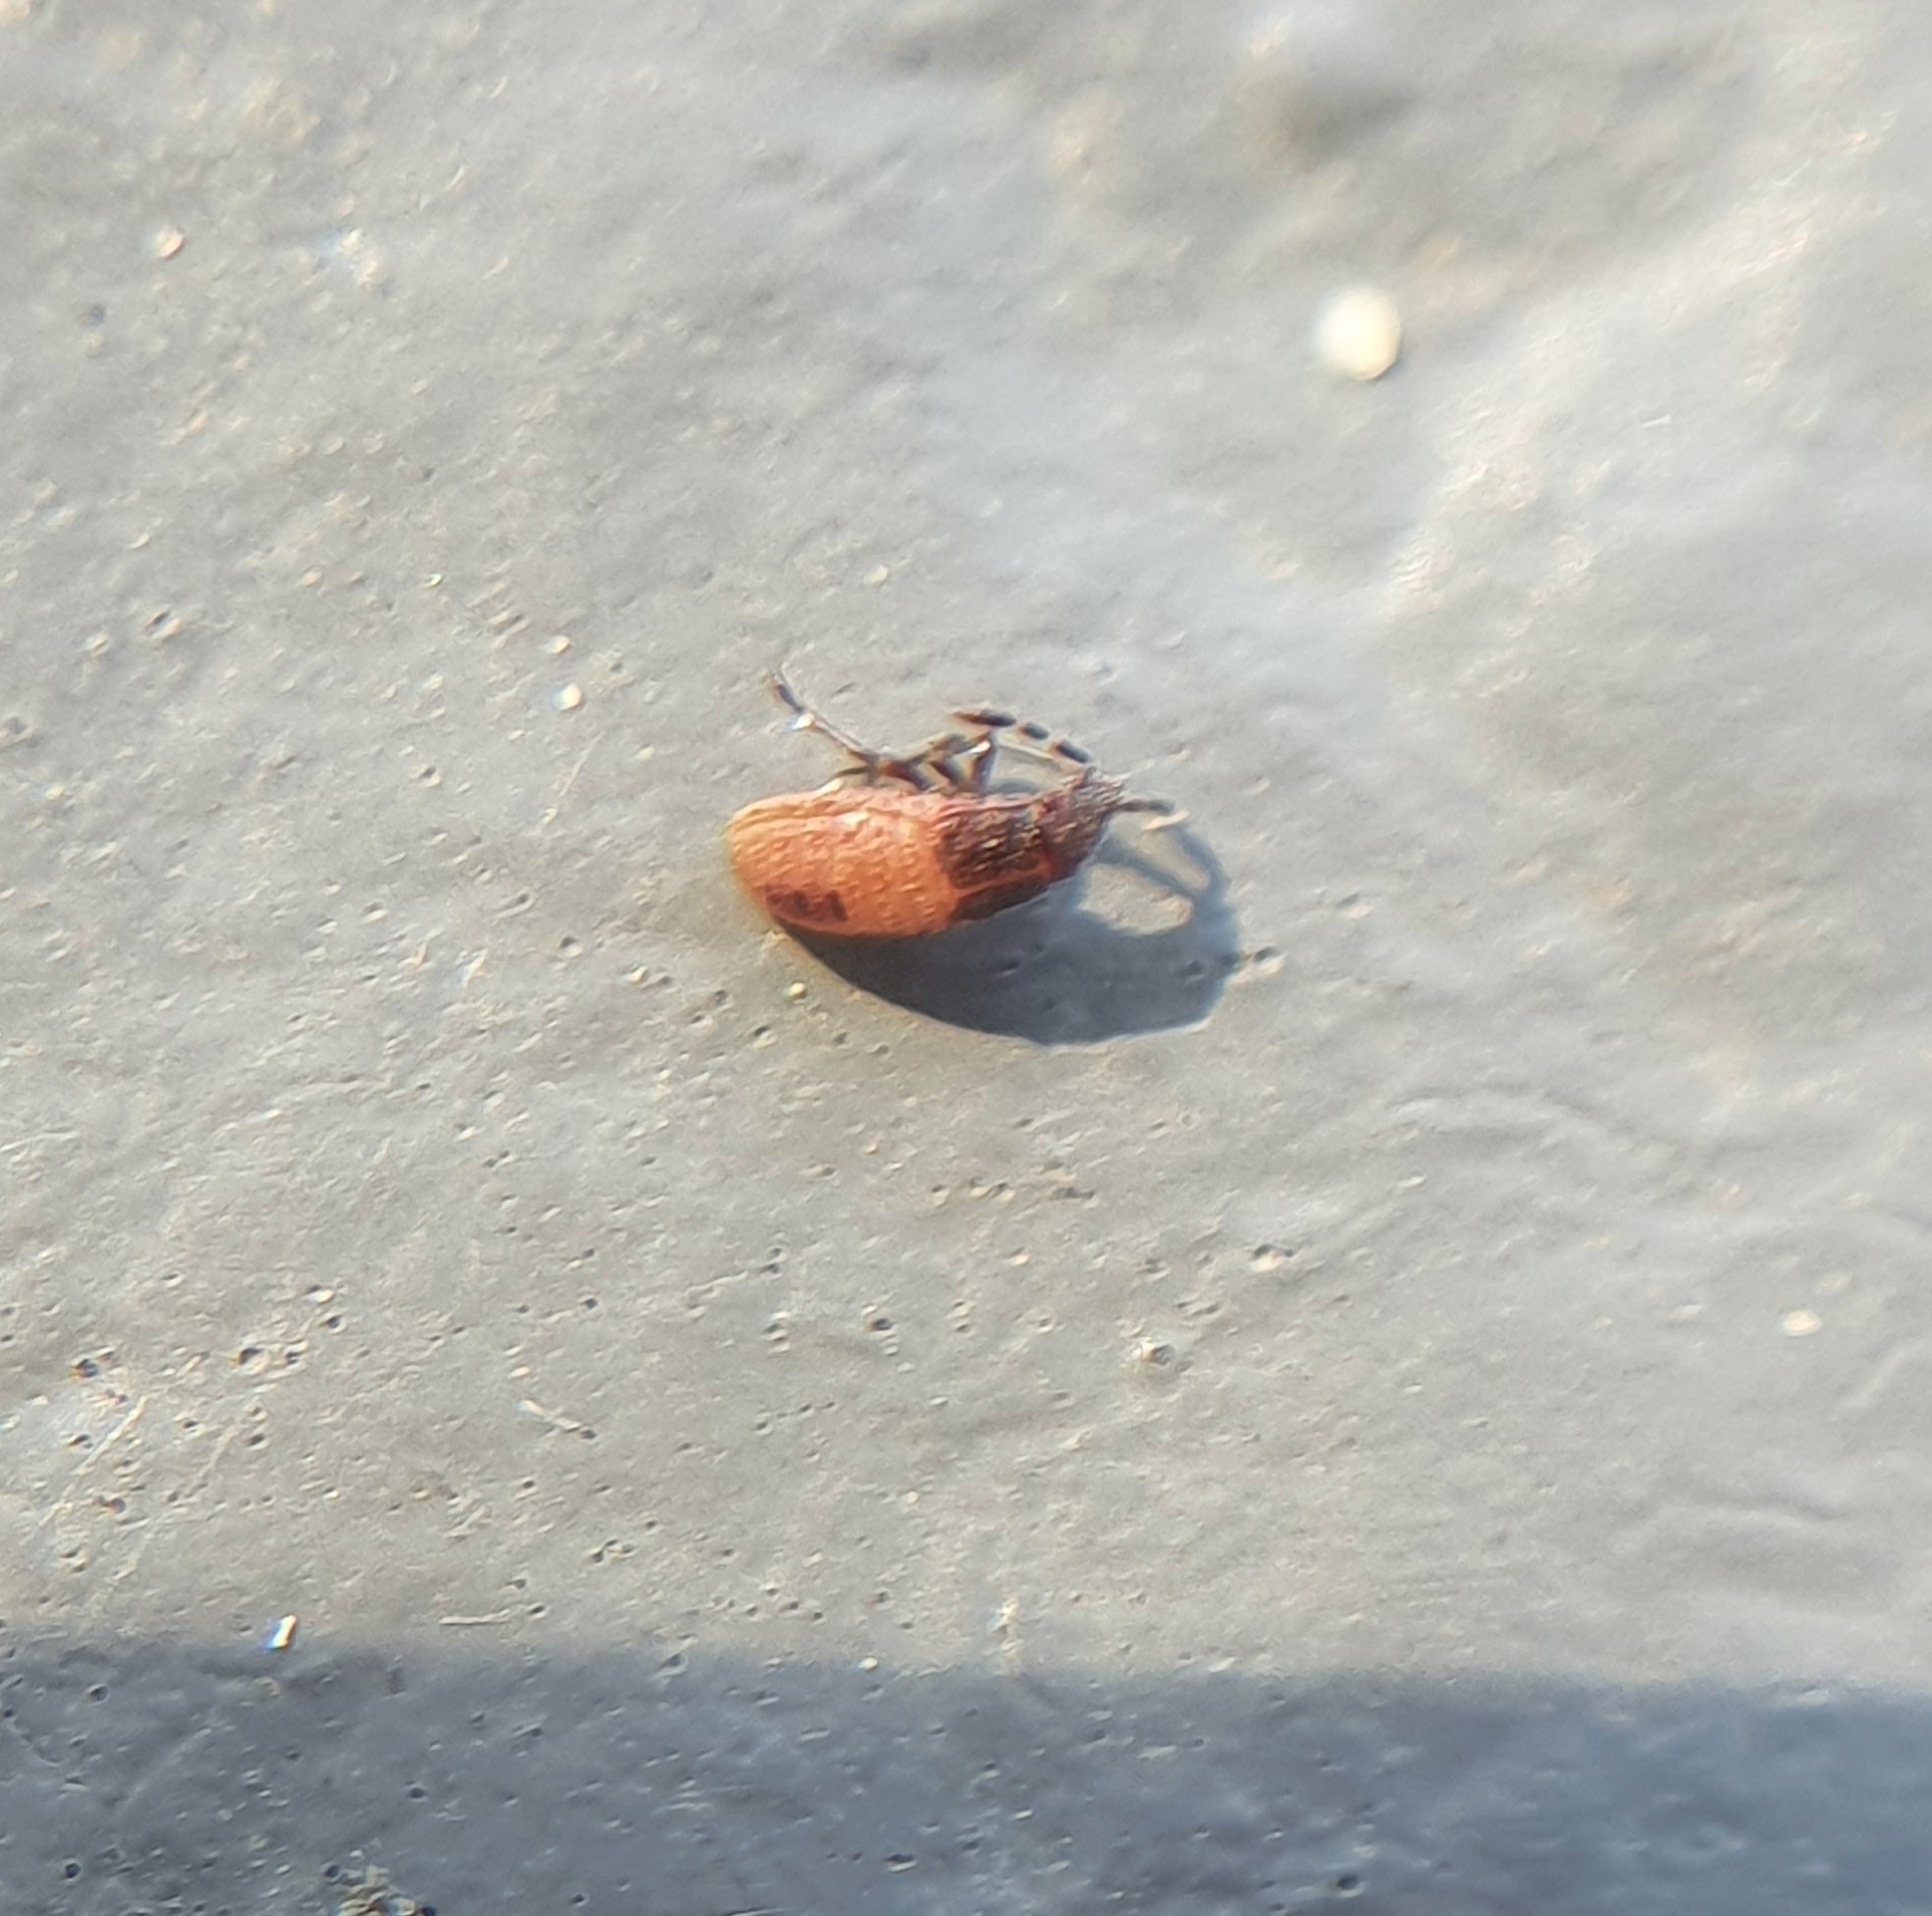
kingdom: Animalia
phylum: Arthropoda
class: Insecta
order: Hemiptera
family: Lygaeidae
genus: Kleidocerys
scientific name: Kleidocerys resedae
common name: Birch catkin bug
